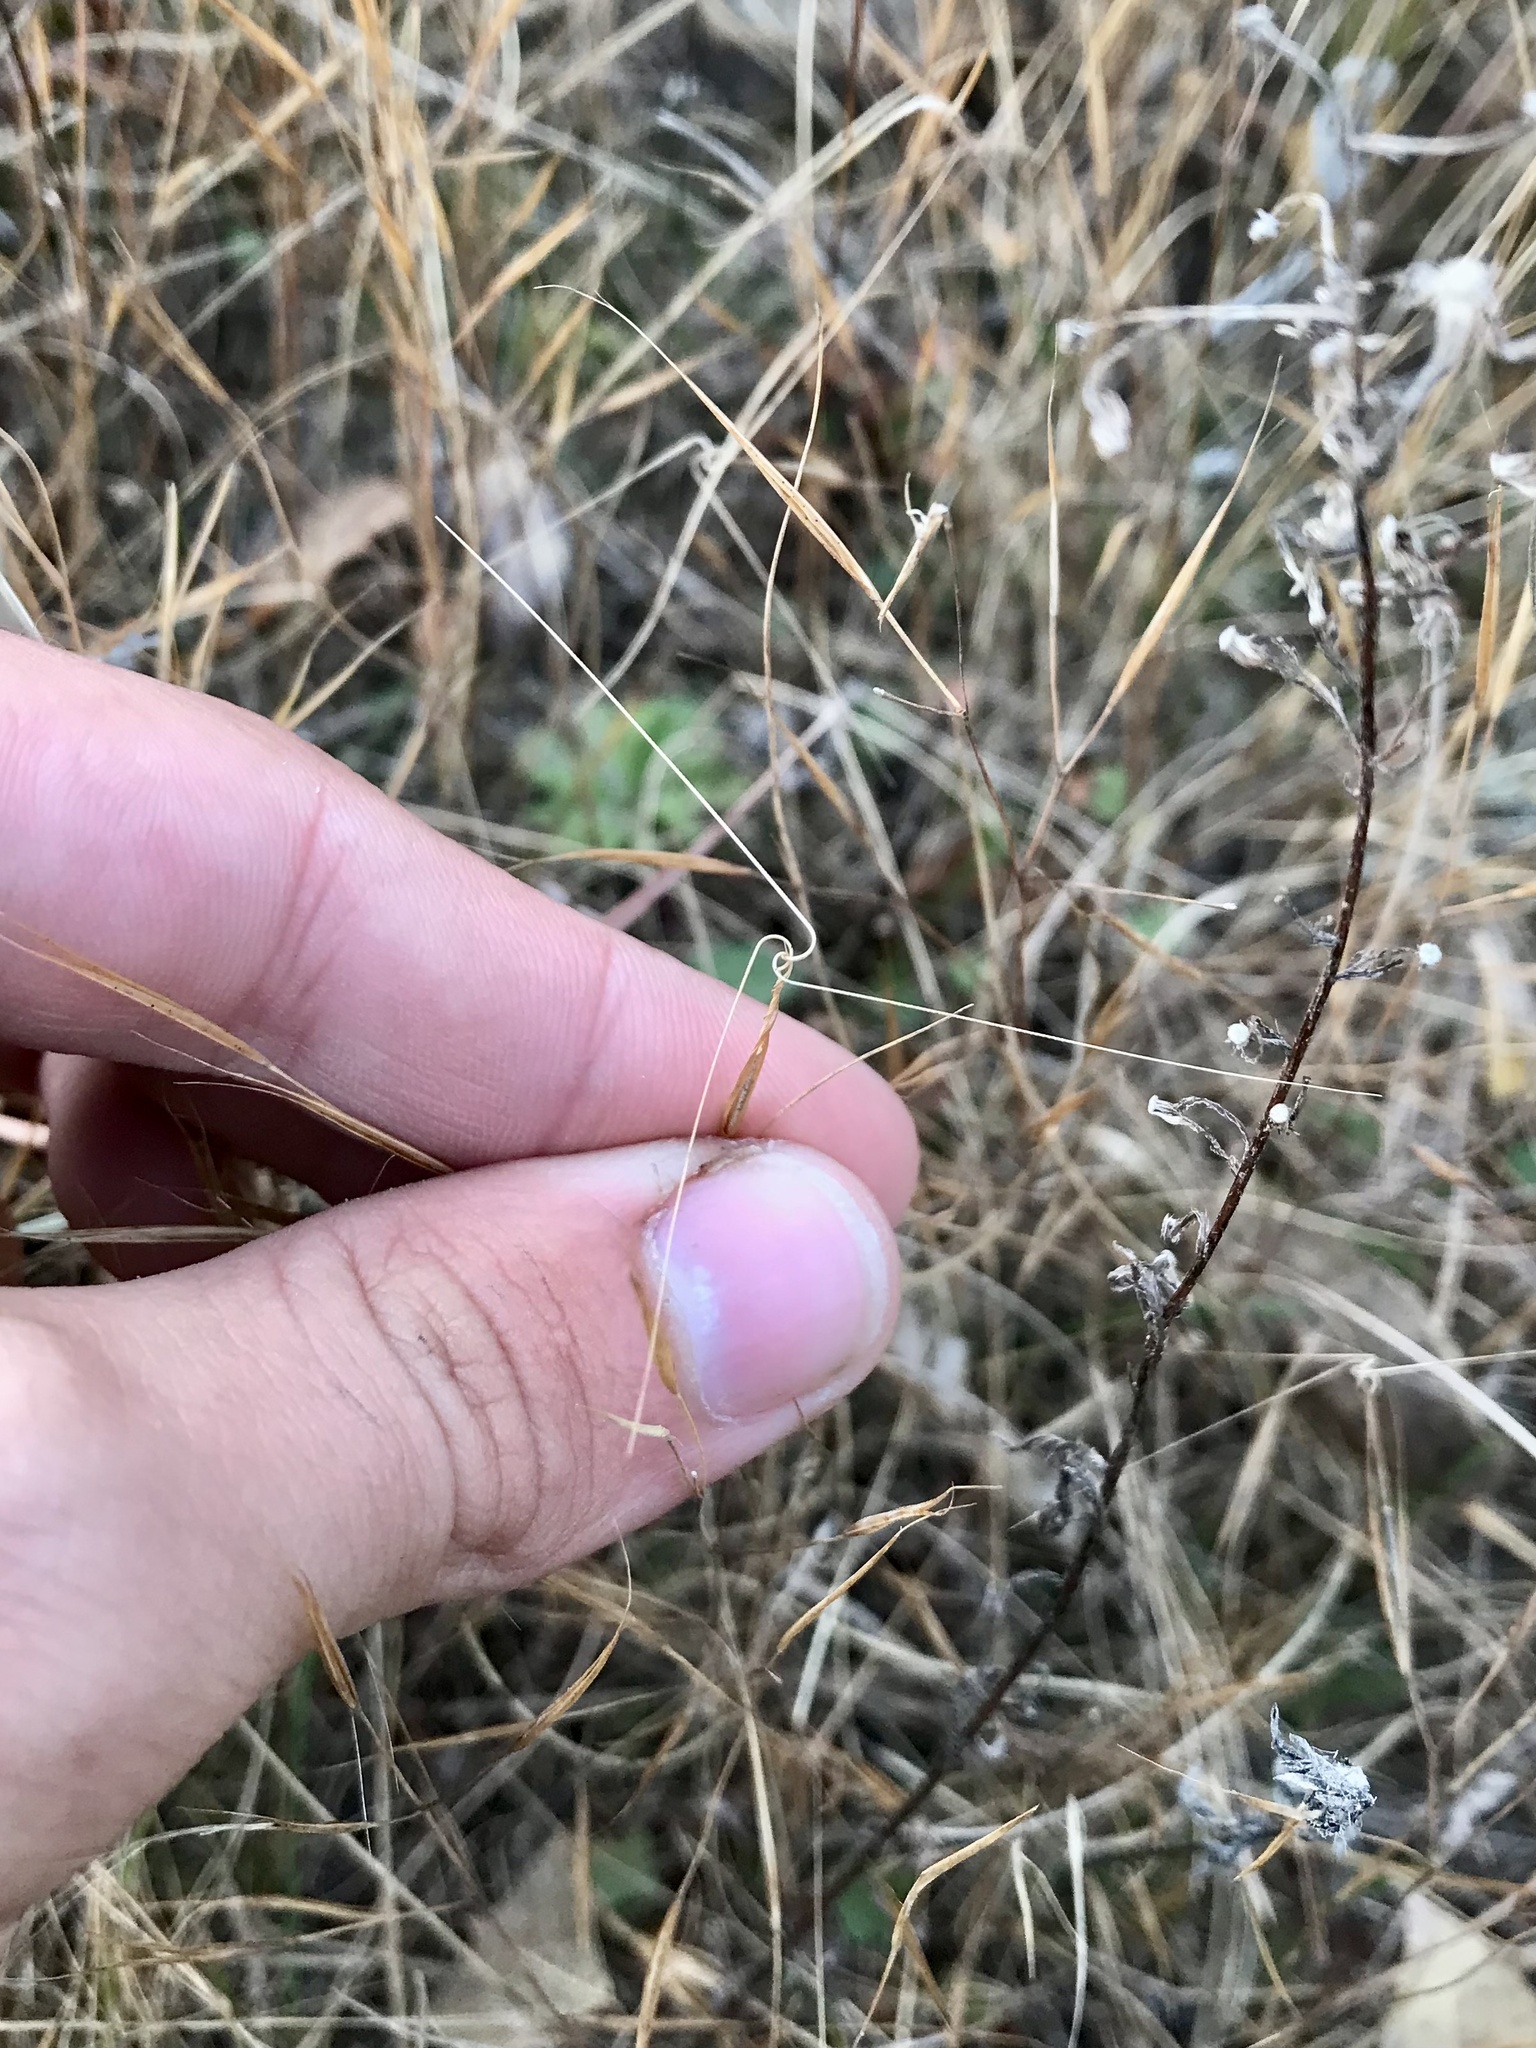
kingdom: Plantae
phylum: Tracheophyta
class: Liliopsida
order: Poales
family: Poaceae
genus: Aristida
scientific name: Aristida tuberculosa
